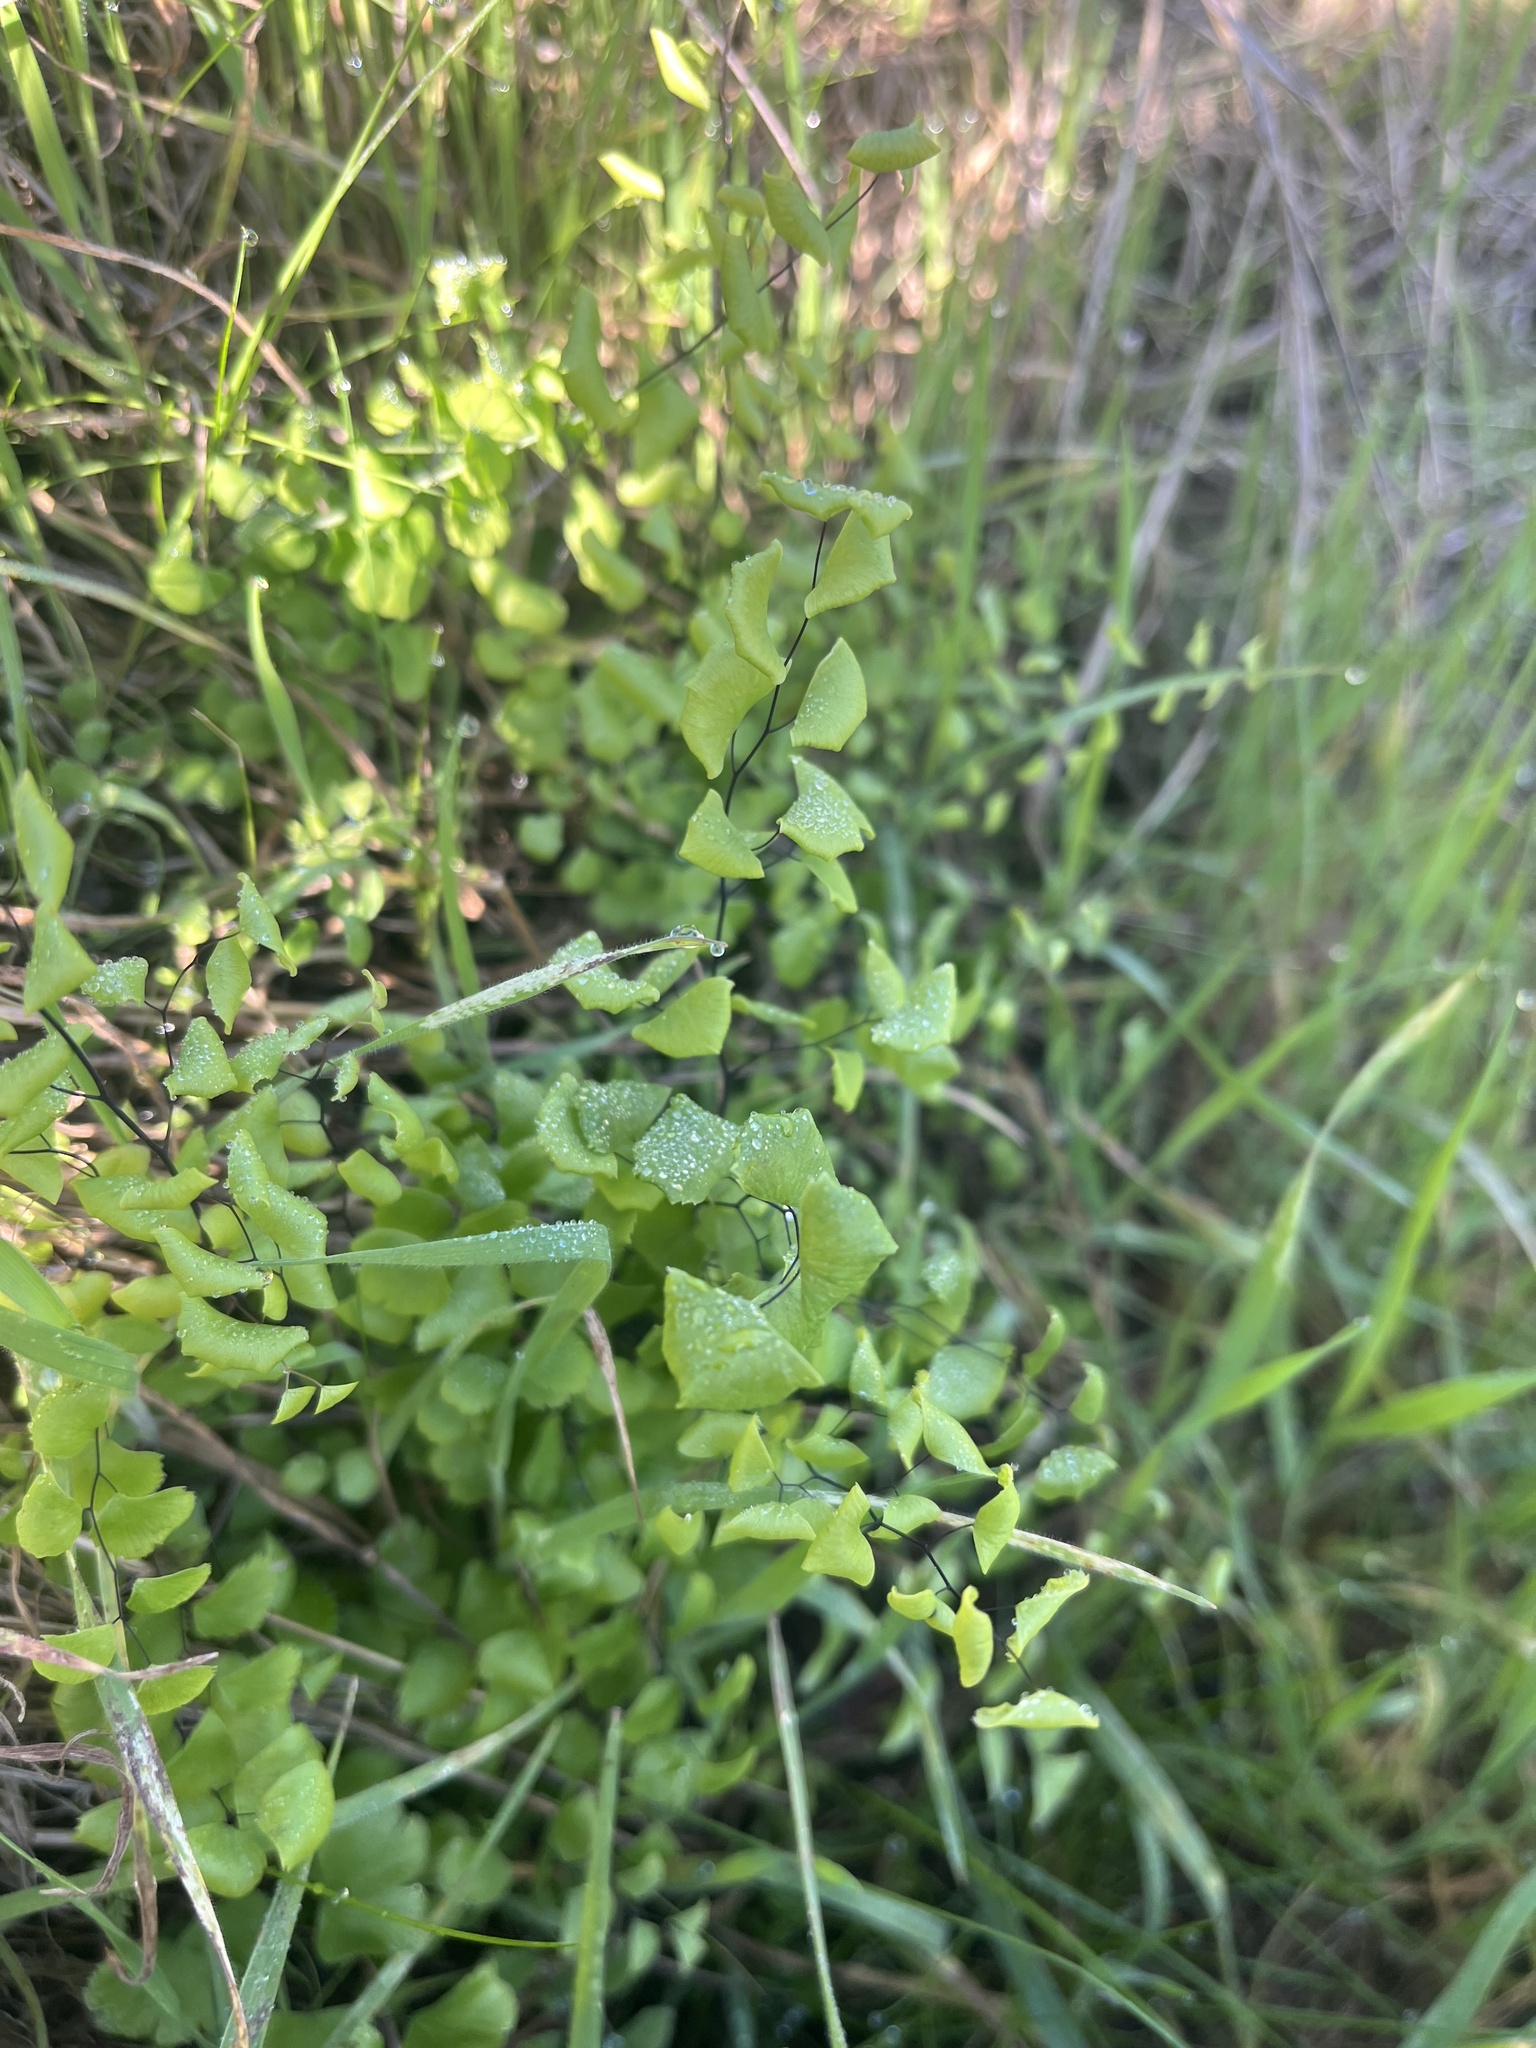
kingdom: Plantae
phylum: Tracheophyta
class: Polypodiopsida
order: Polypodiales
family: Pteridaceae
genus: Adiantum
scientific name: Adiantum jordanii
